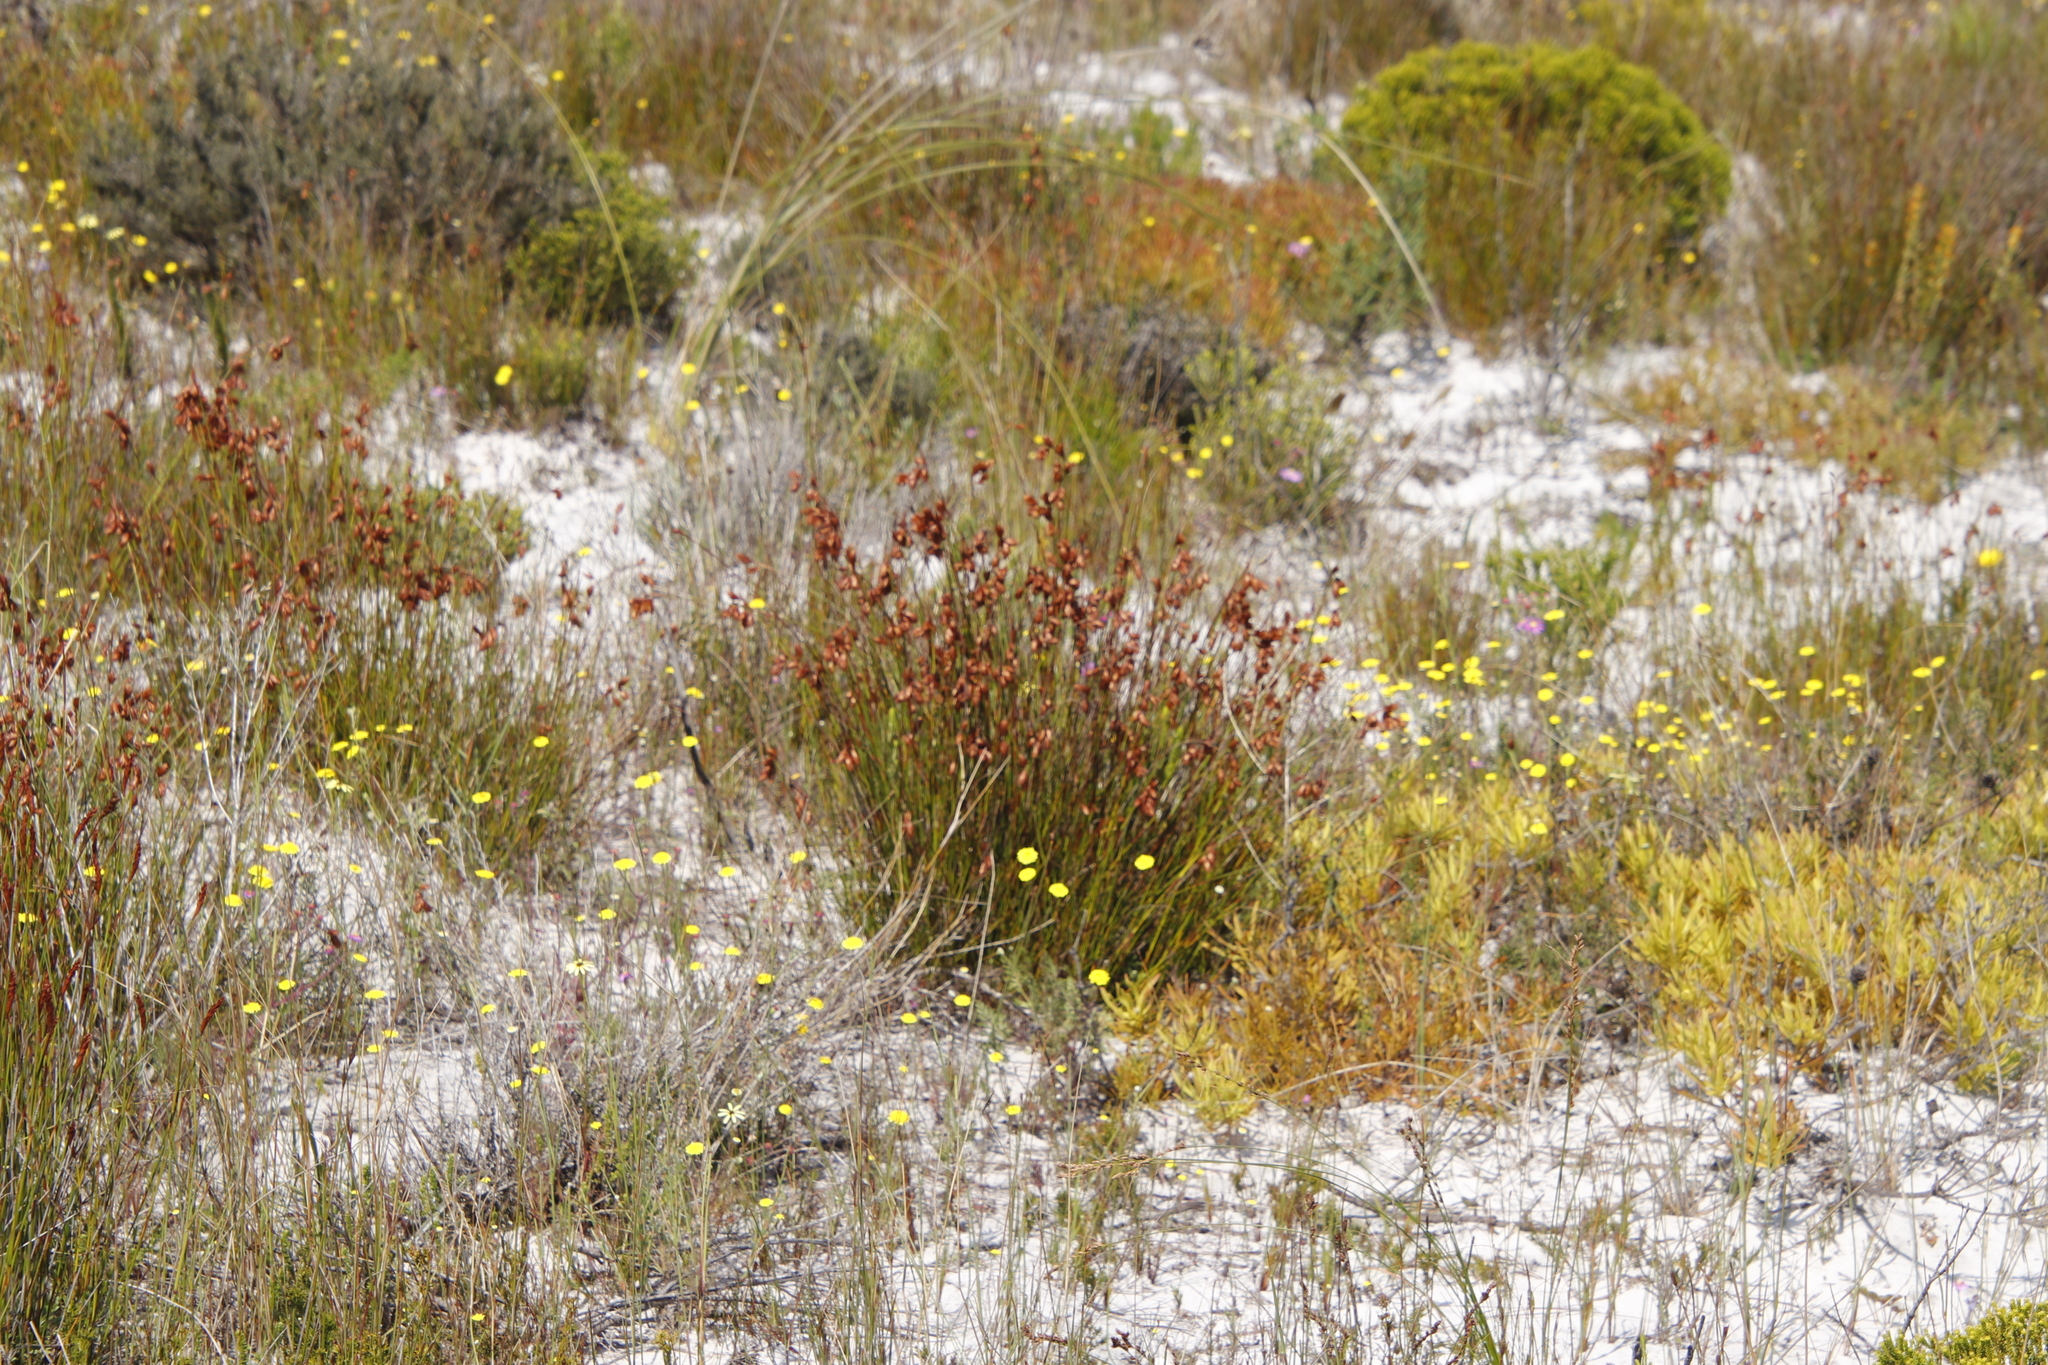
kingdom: Plantae
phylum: Tracheophyta
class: Magnoliopsida
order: Proteales
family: Proteaceae
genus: Leucadendron
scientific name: Leucadendron salignum
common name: Common sunshine conebush
